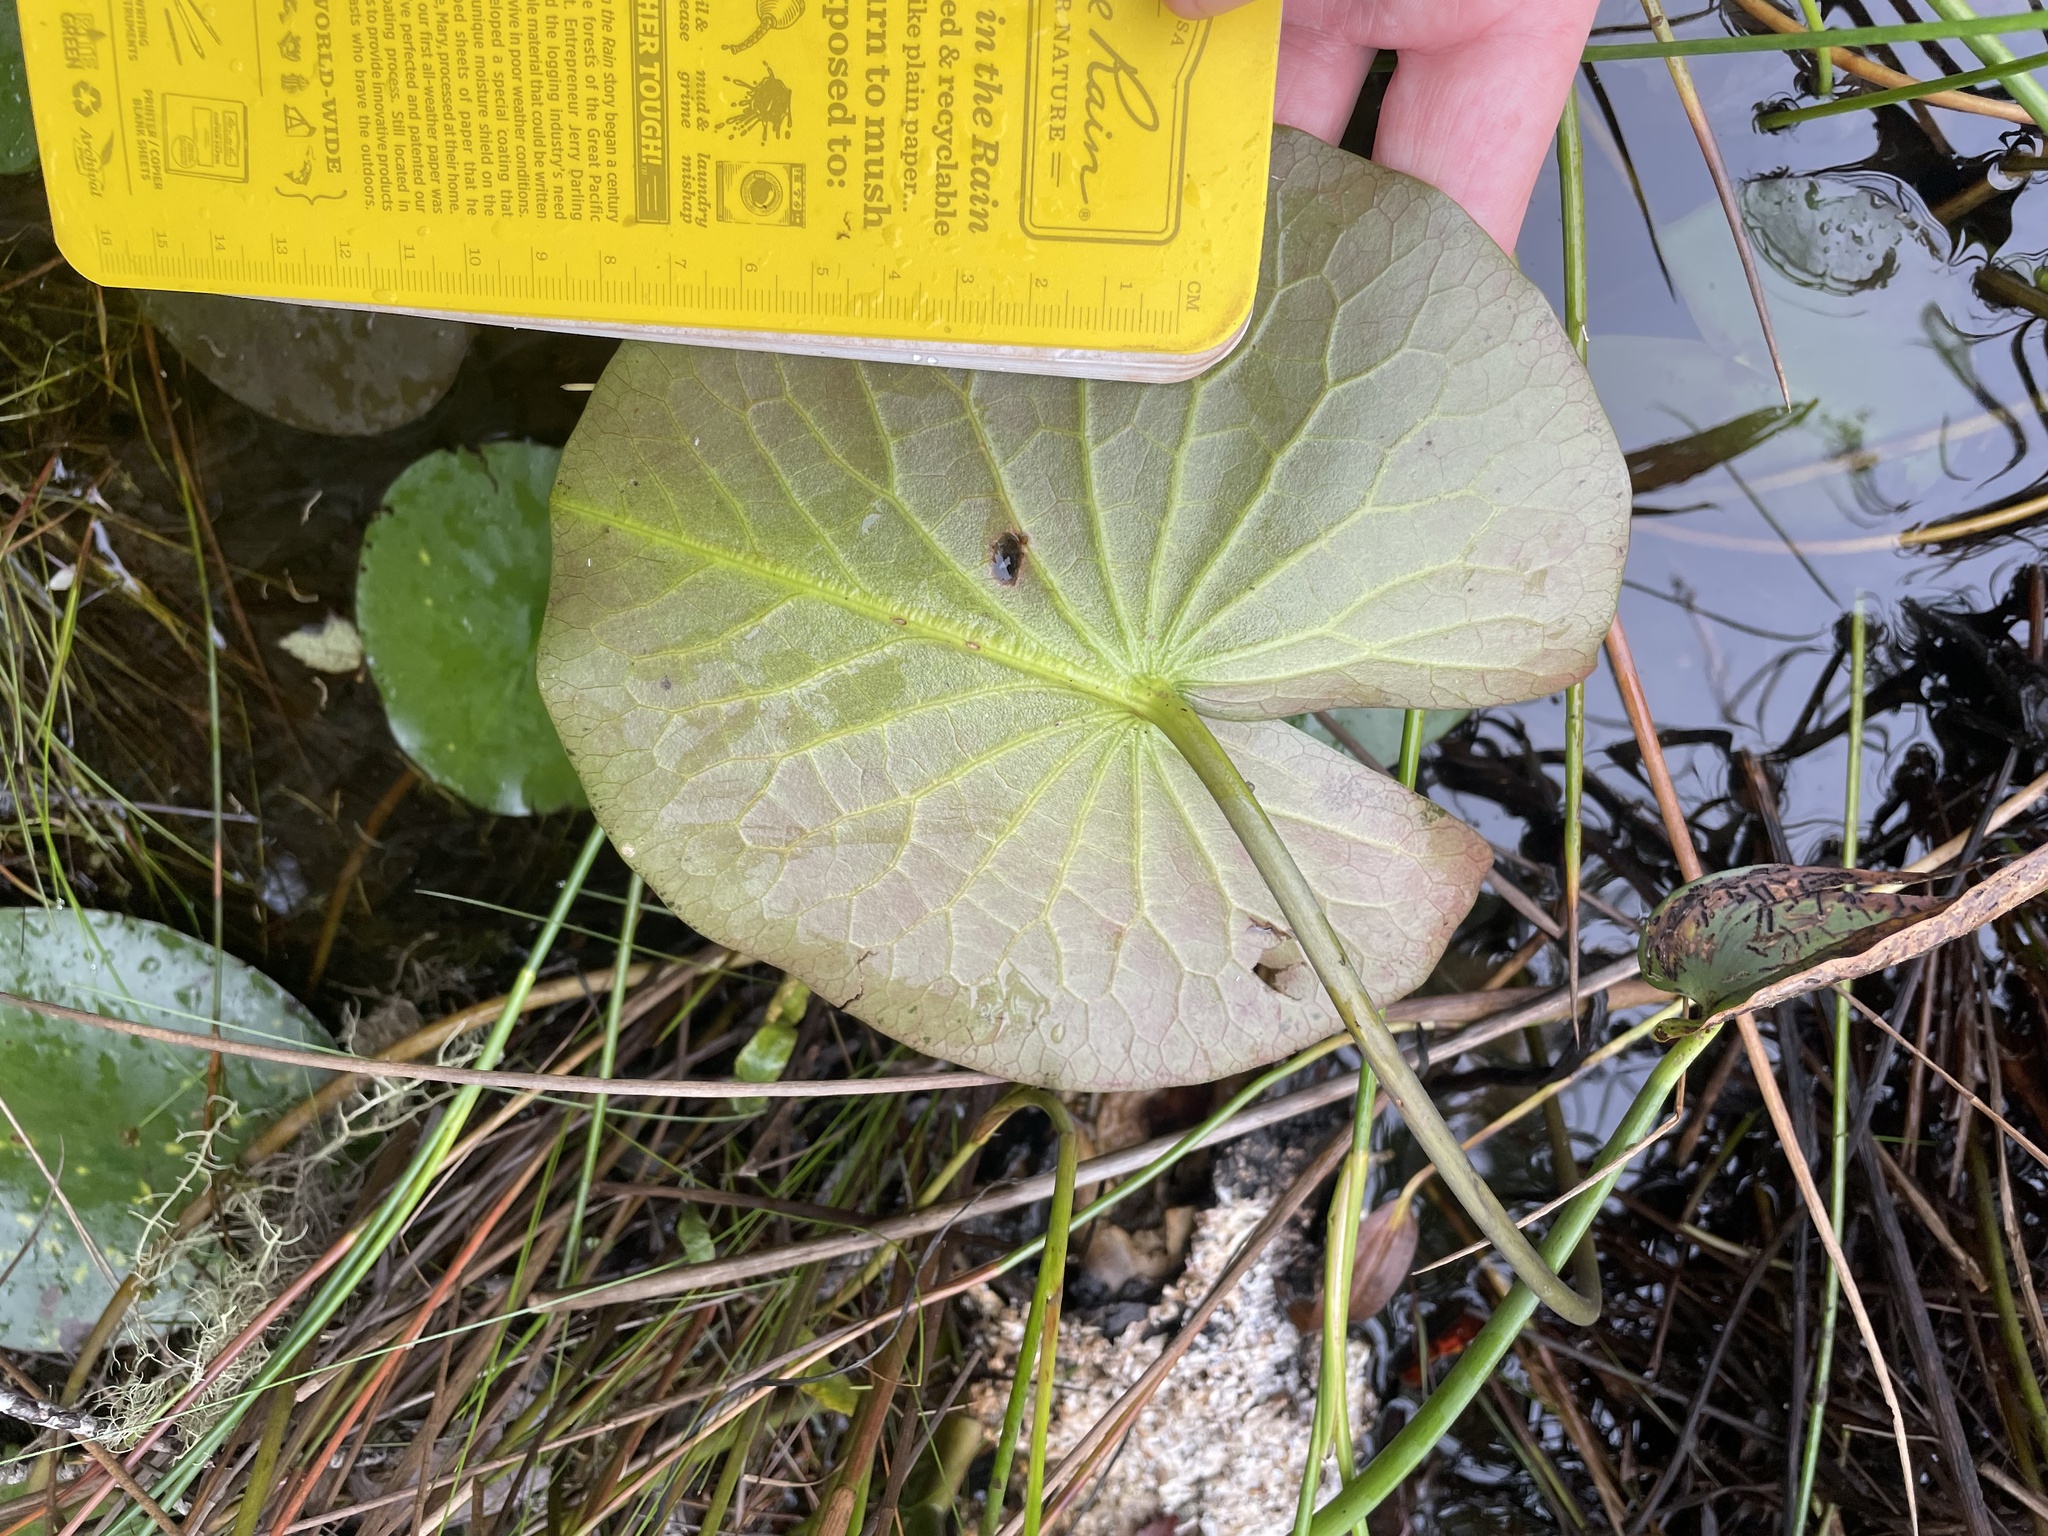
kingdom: Plantae
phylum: Tracheophyta
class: Magnoliopsida
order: Nymphaeales
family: Nymphaeaceae
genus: Nymphaea
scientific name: Nymphaea odorata
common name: Fragrant water-lily
